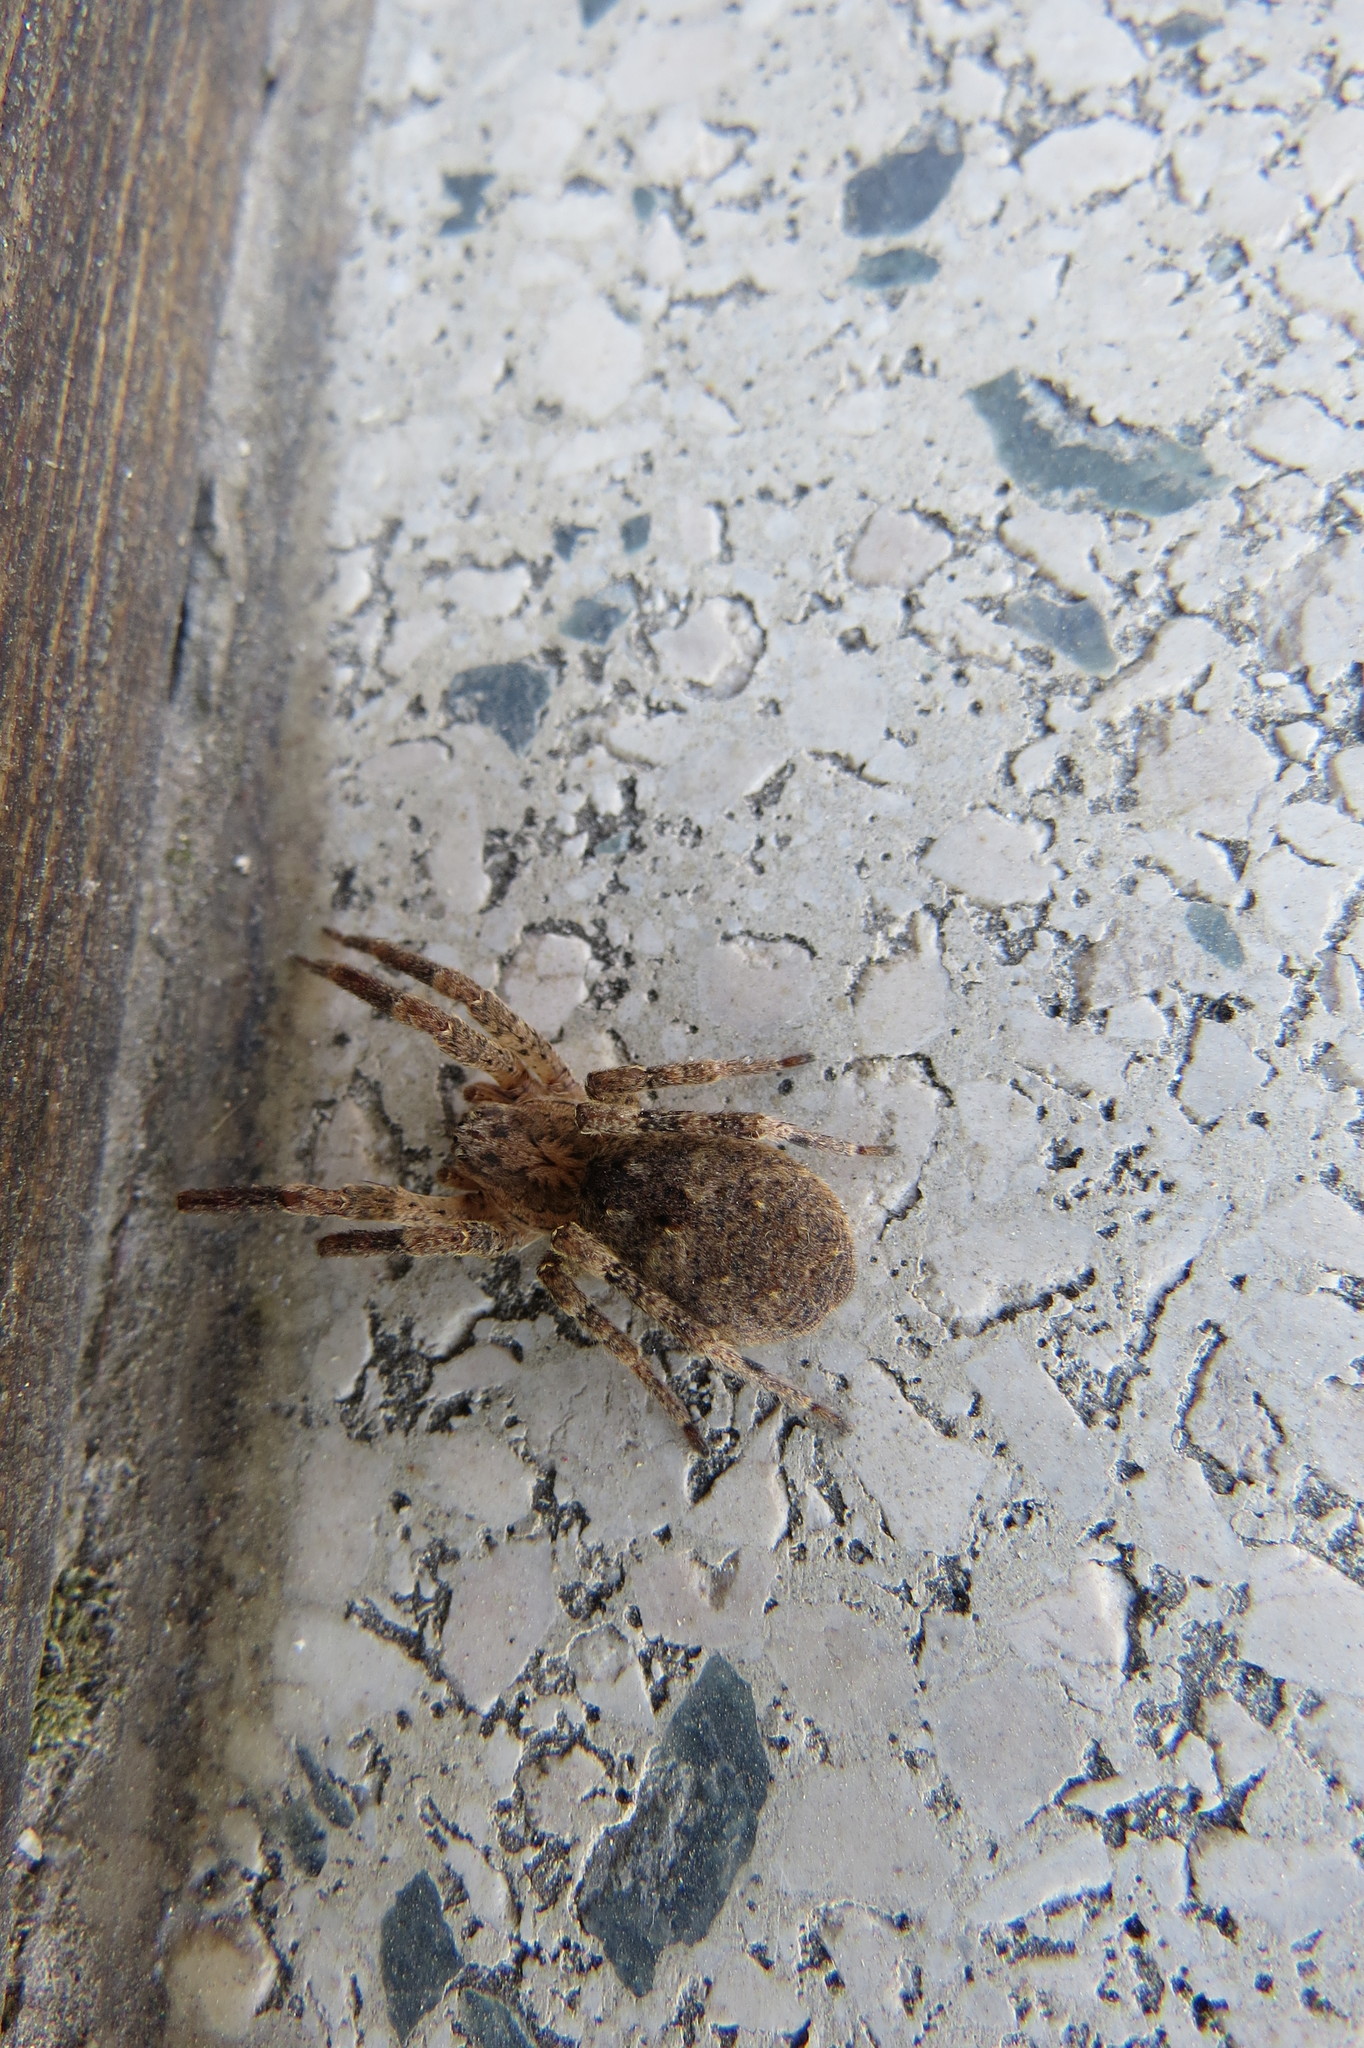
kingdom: Animalia
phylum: Arthropoda
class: Arachnida
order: Araneae
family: Zoropsidae
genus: Zoropsis
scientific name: Zoropsis spinimana
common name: Zoropsid spider
